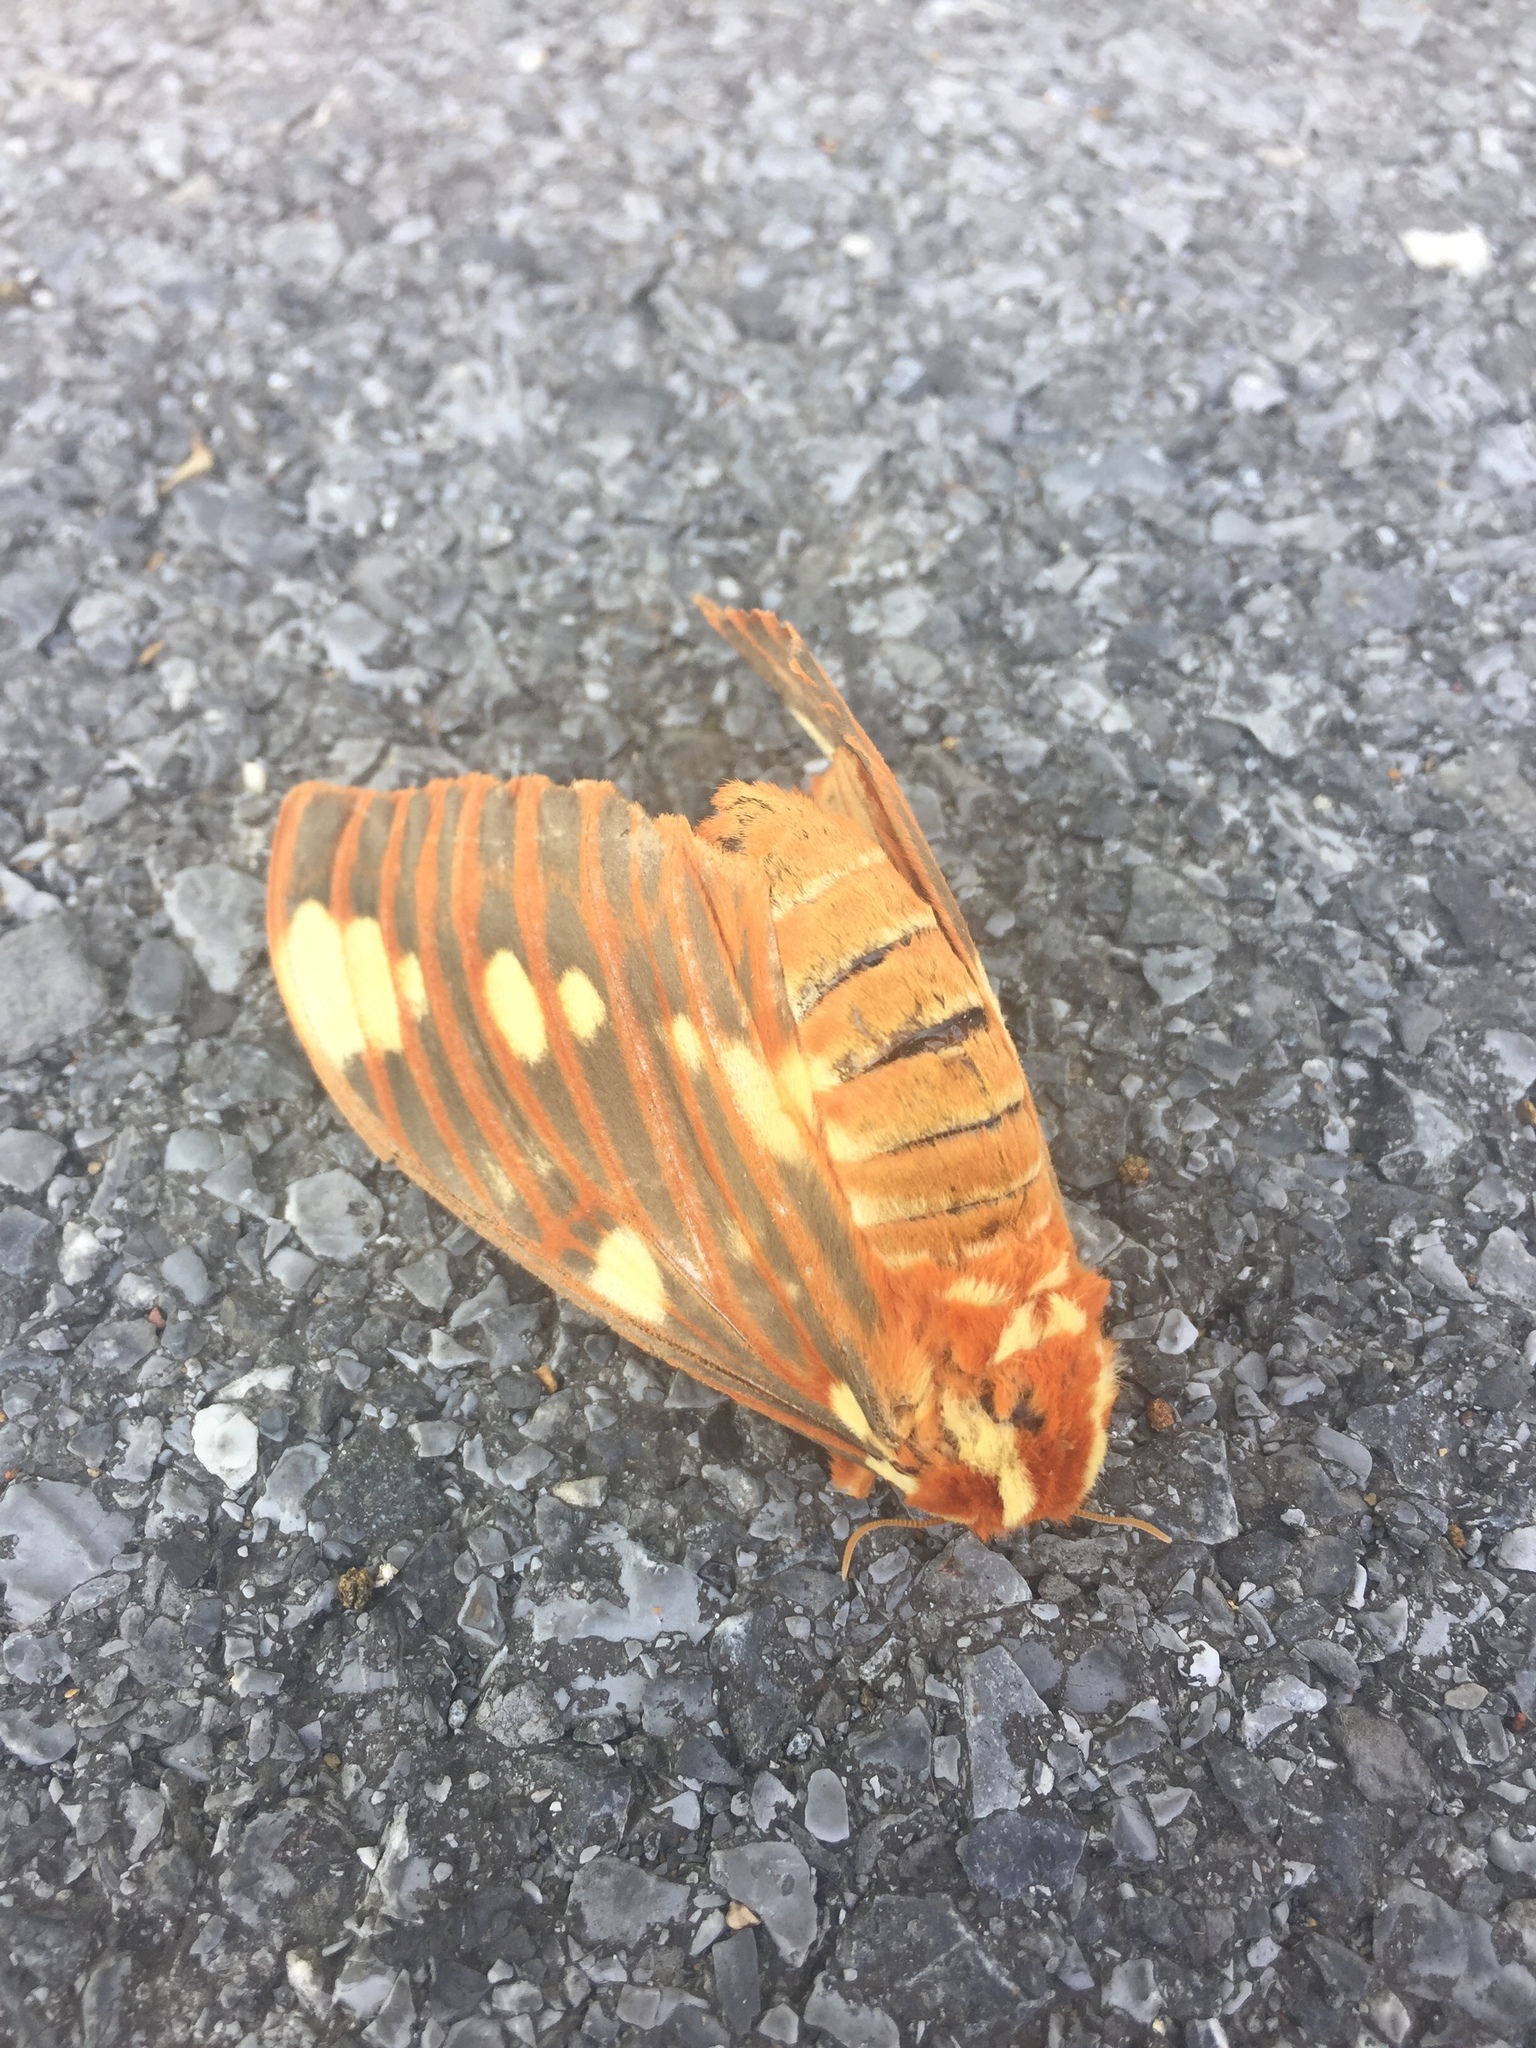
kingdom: Animalia
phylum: Arthropoda
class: Insecta
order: Lepidoptera
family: Saturniidae
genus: Citheronia
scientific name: Citheronia regalis
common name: Hickory horned devil
